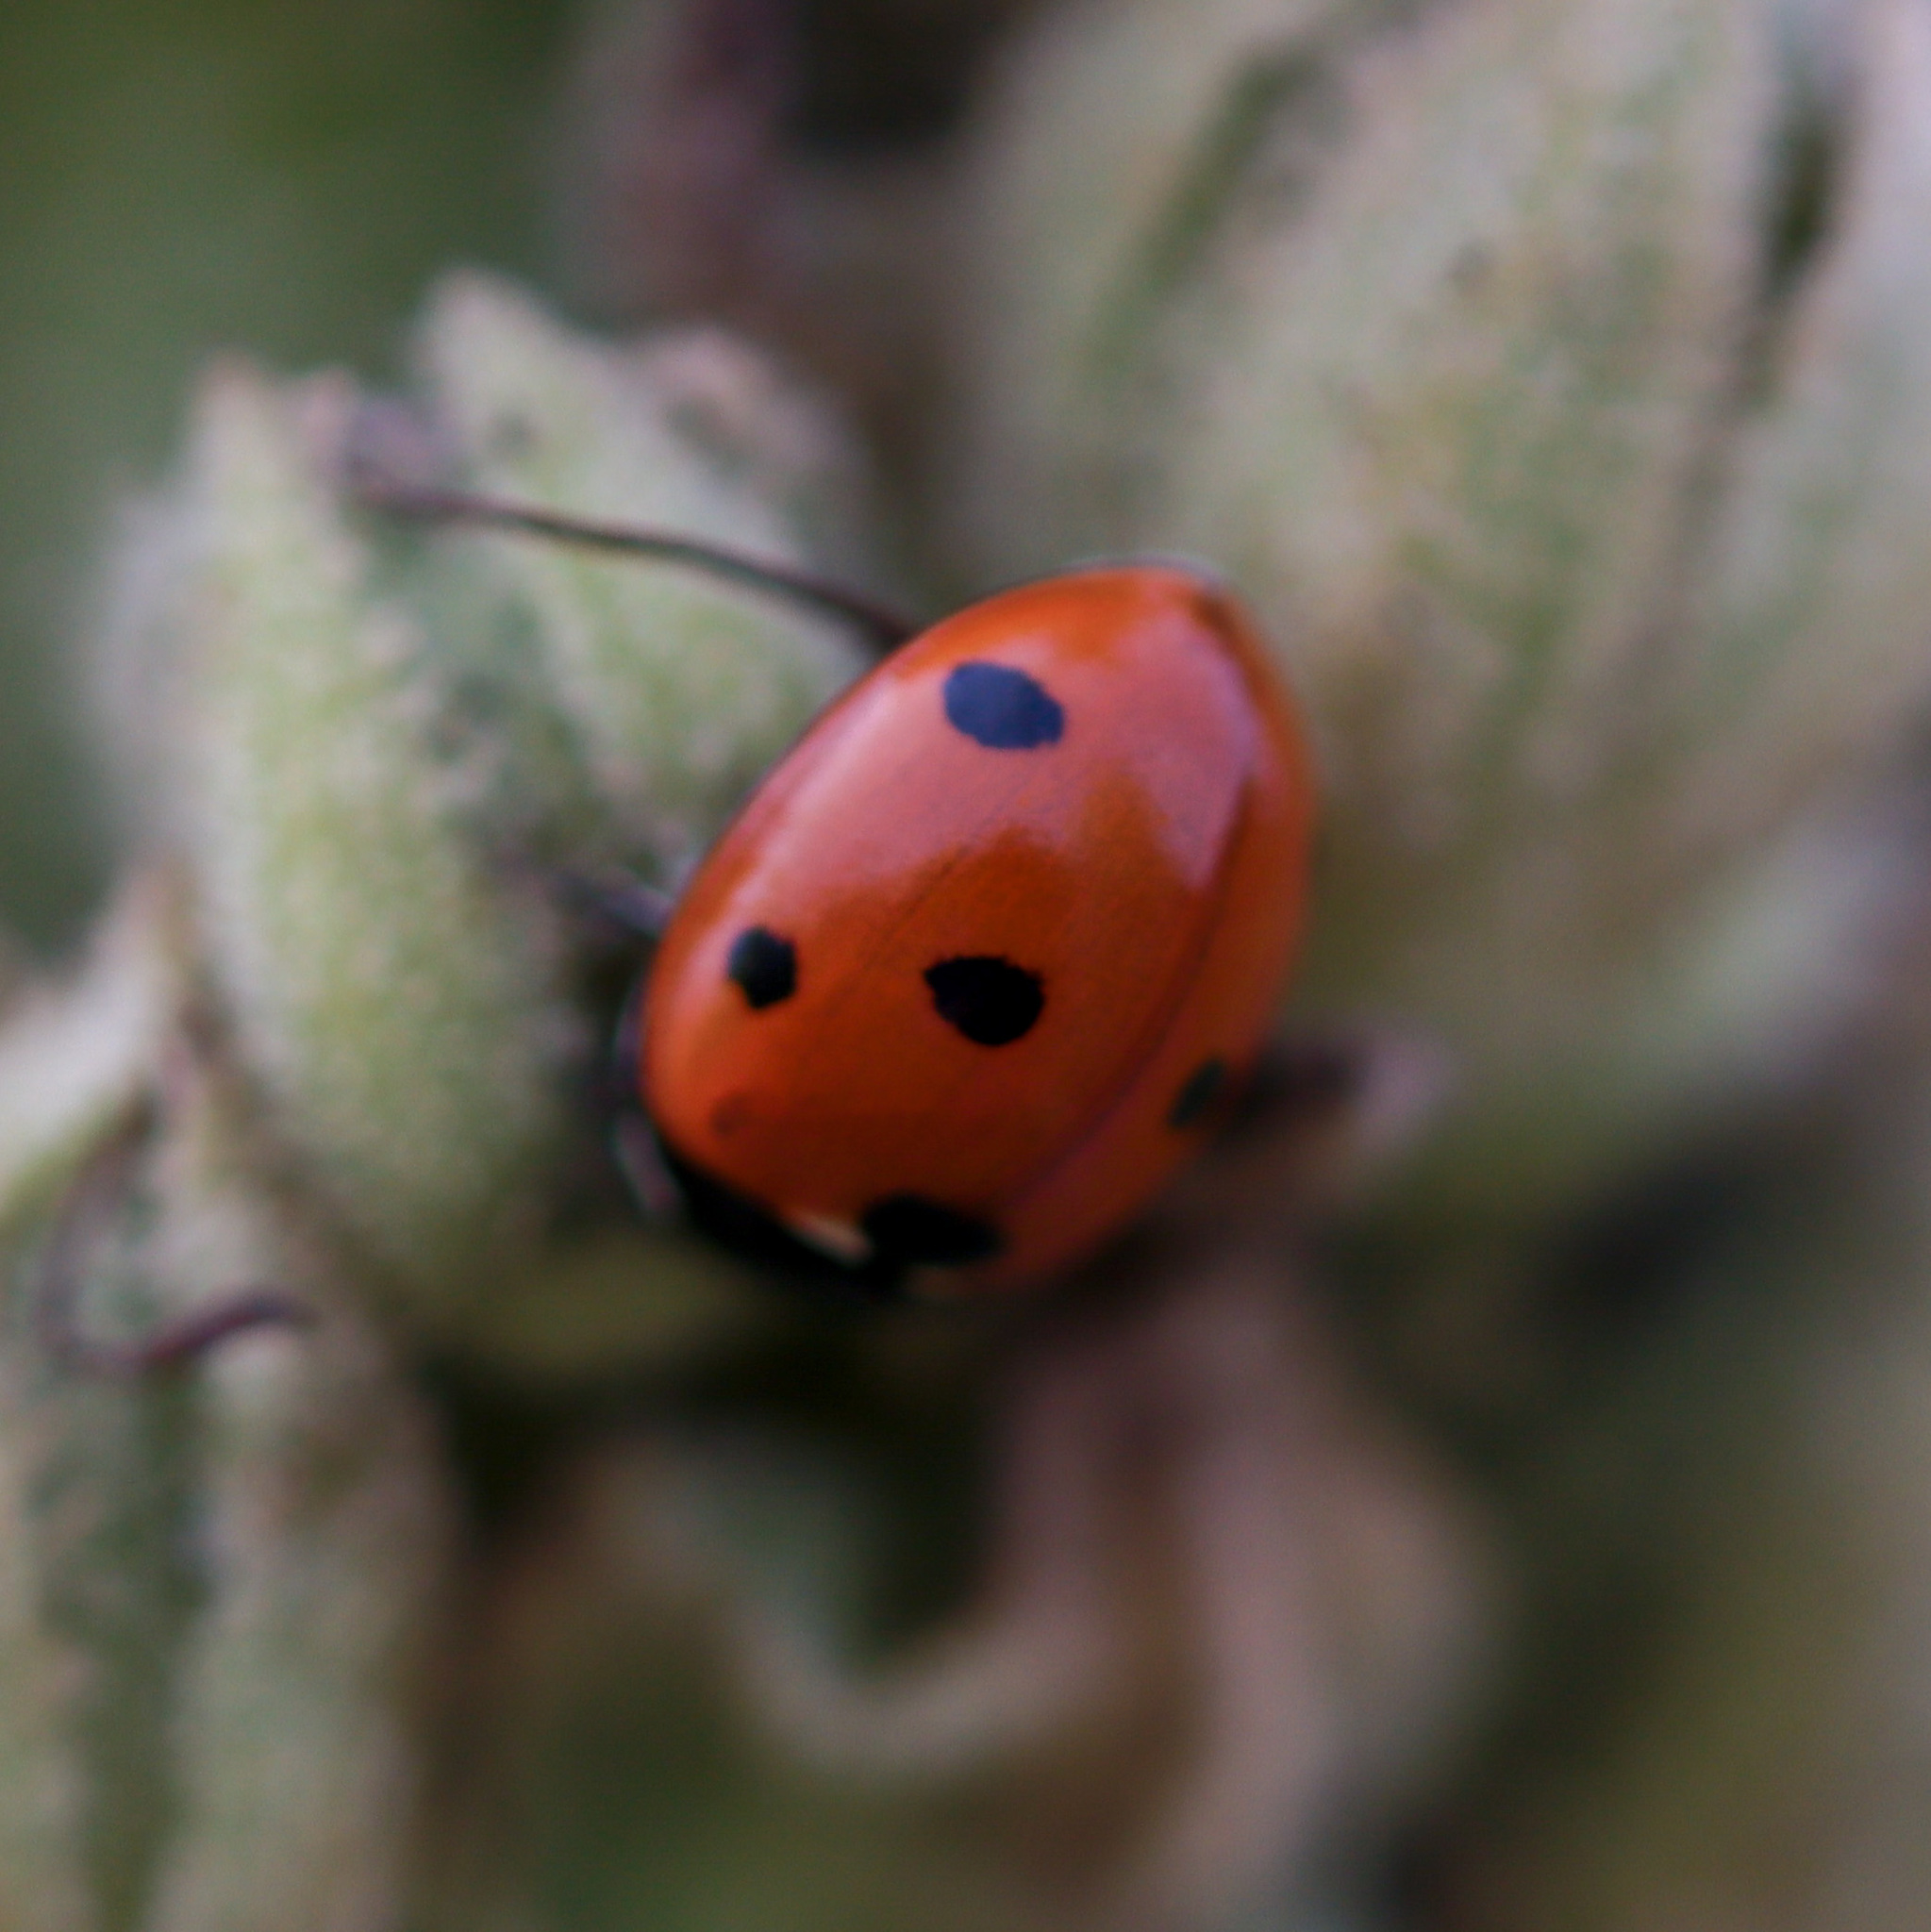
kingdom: Animalia
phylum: Arthropoda
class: Insecta
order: Coleoptera
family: Coccinellidae
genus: Coccinella
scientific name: Coccinella septempunctata
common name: Sevenspotted lady beetle
